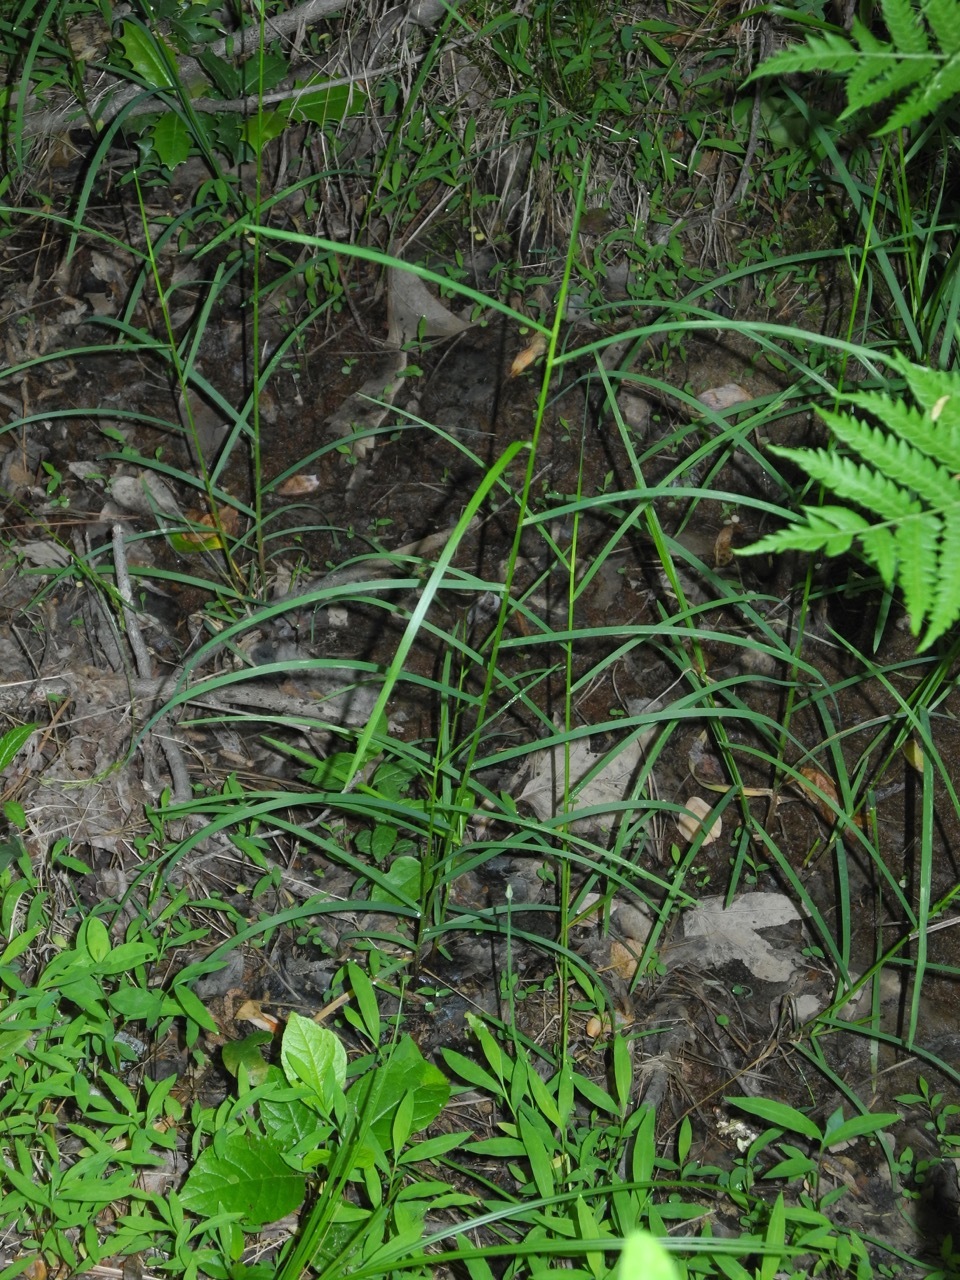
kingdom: Plantae
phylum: Tracheophyta
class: Liliopsida
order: Poales
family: Poaceae
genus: Glyceria
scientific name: Glyceria striata
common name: Fowl manna grass
